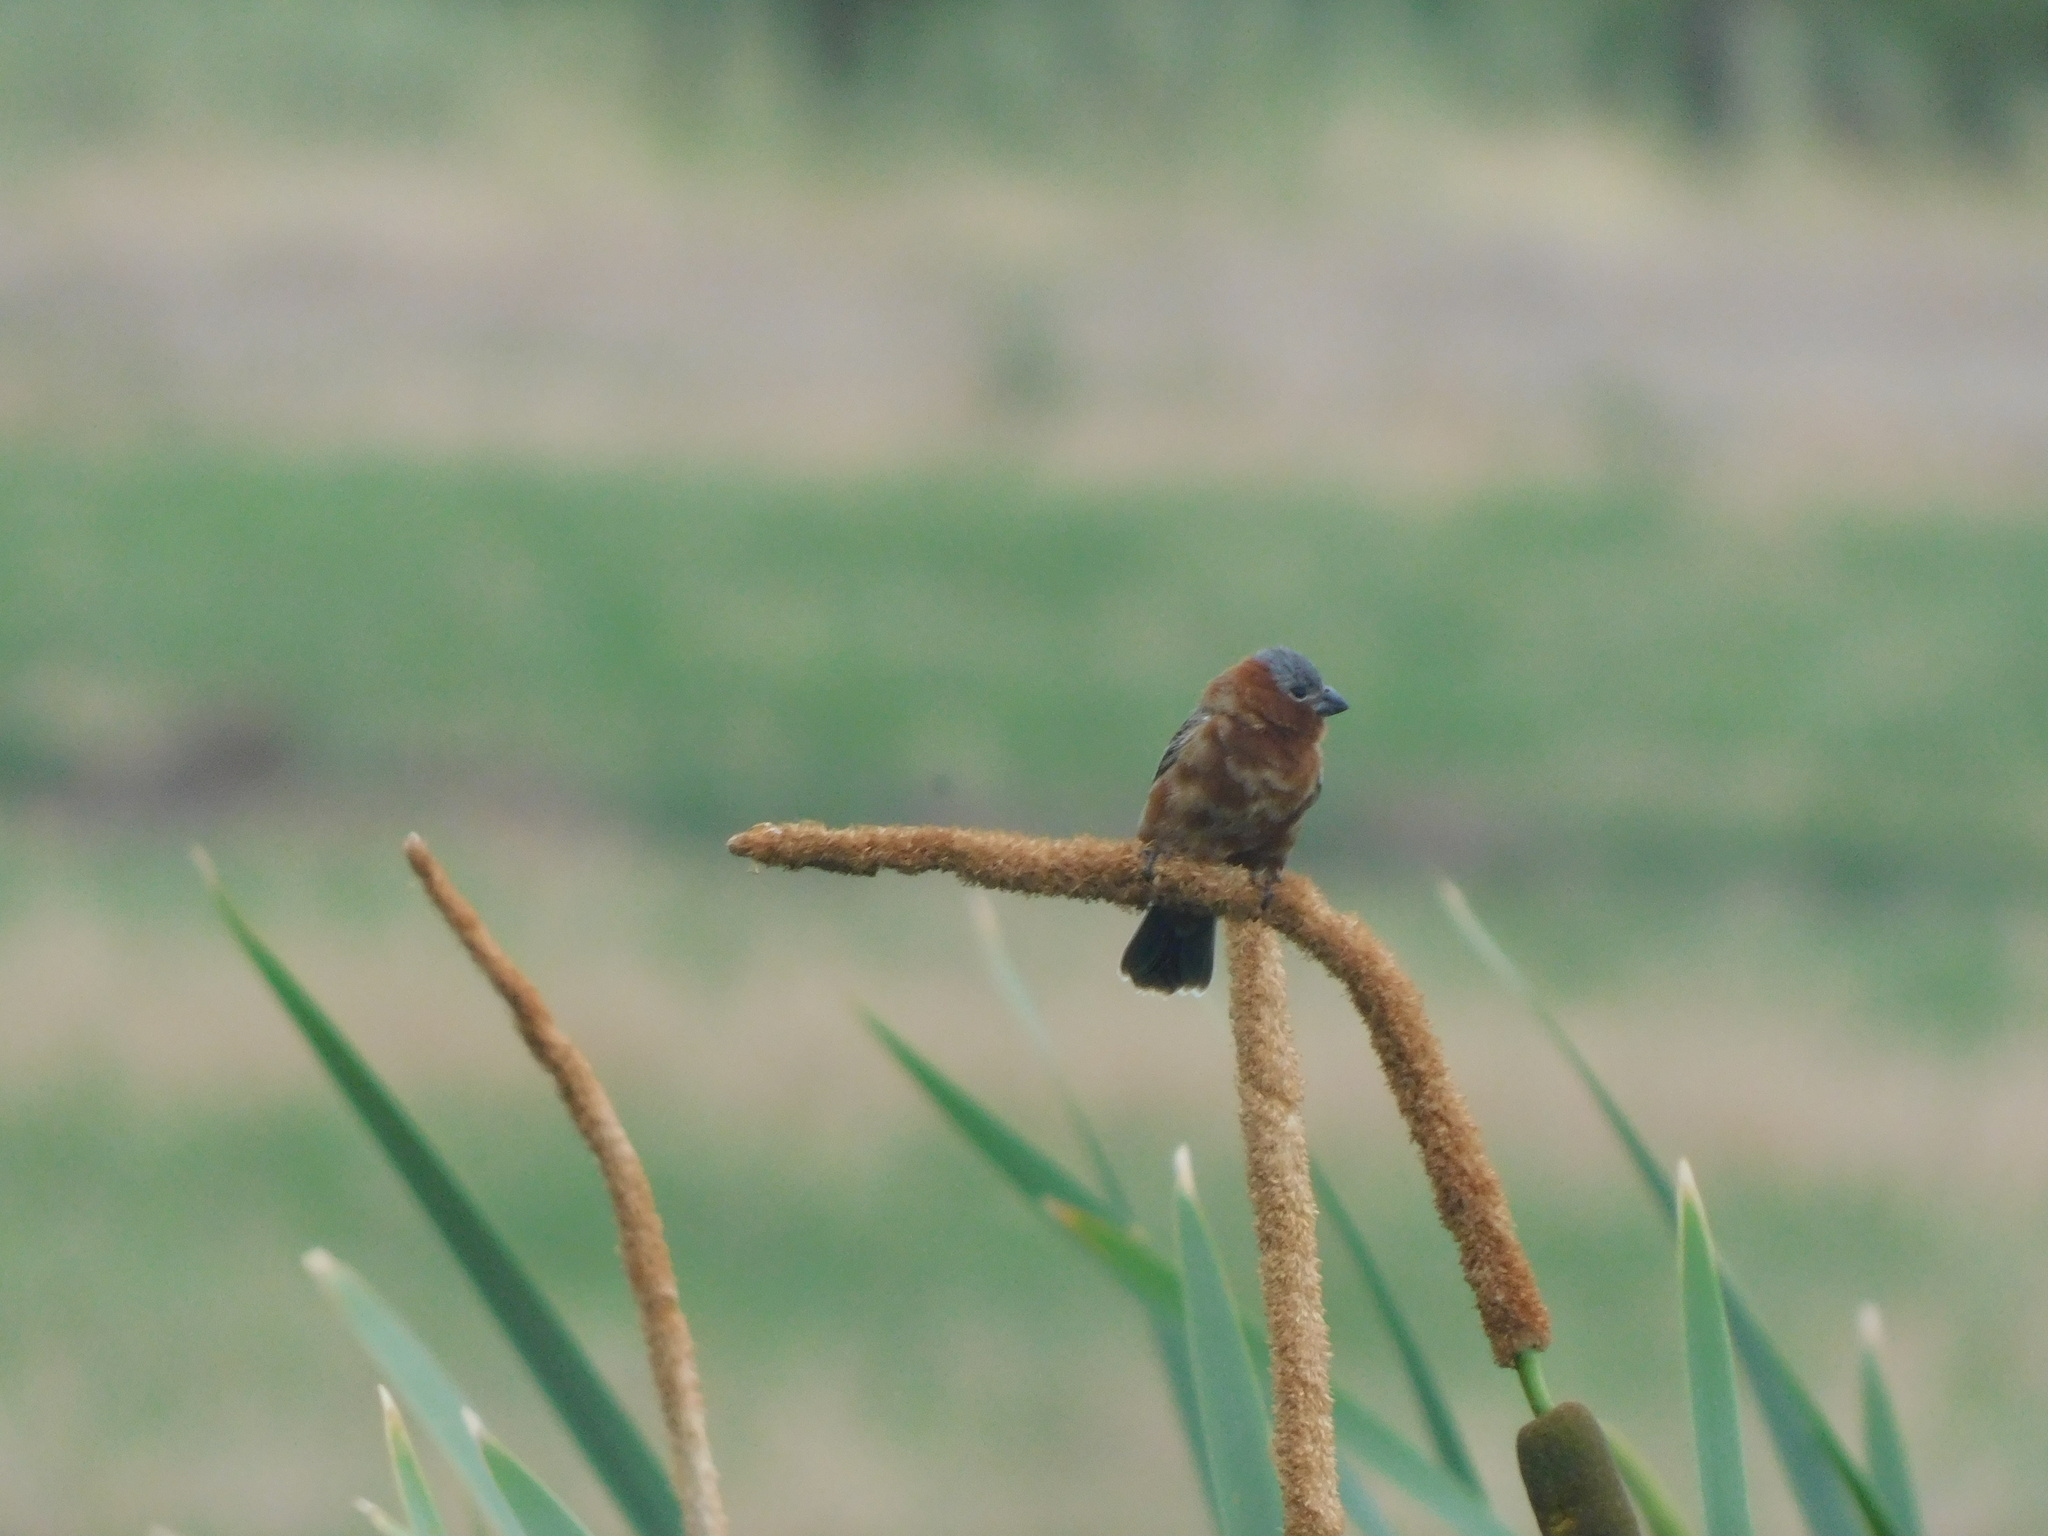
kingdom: Animalia
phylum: Chordata
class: Aves
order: Passeriformes
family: Thraupidae
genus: Sporophila
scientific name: Sporophila cinnamomea
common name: Chestnut seedeater
